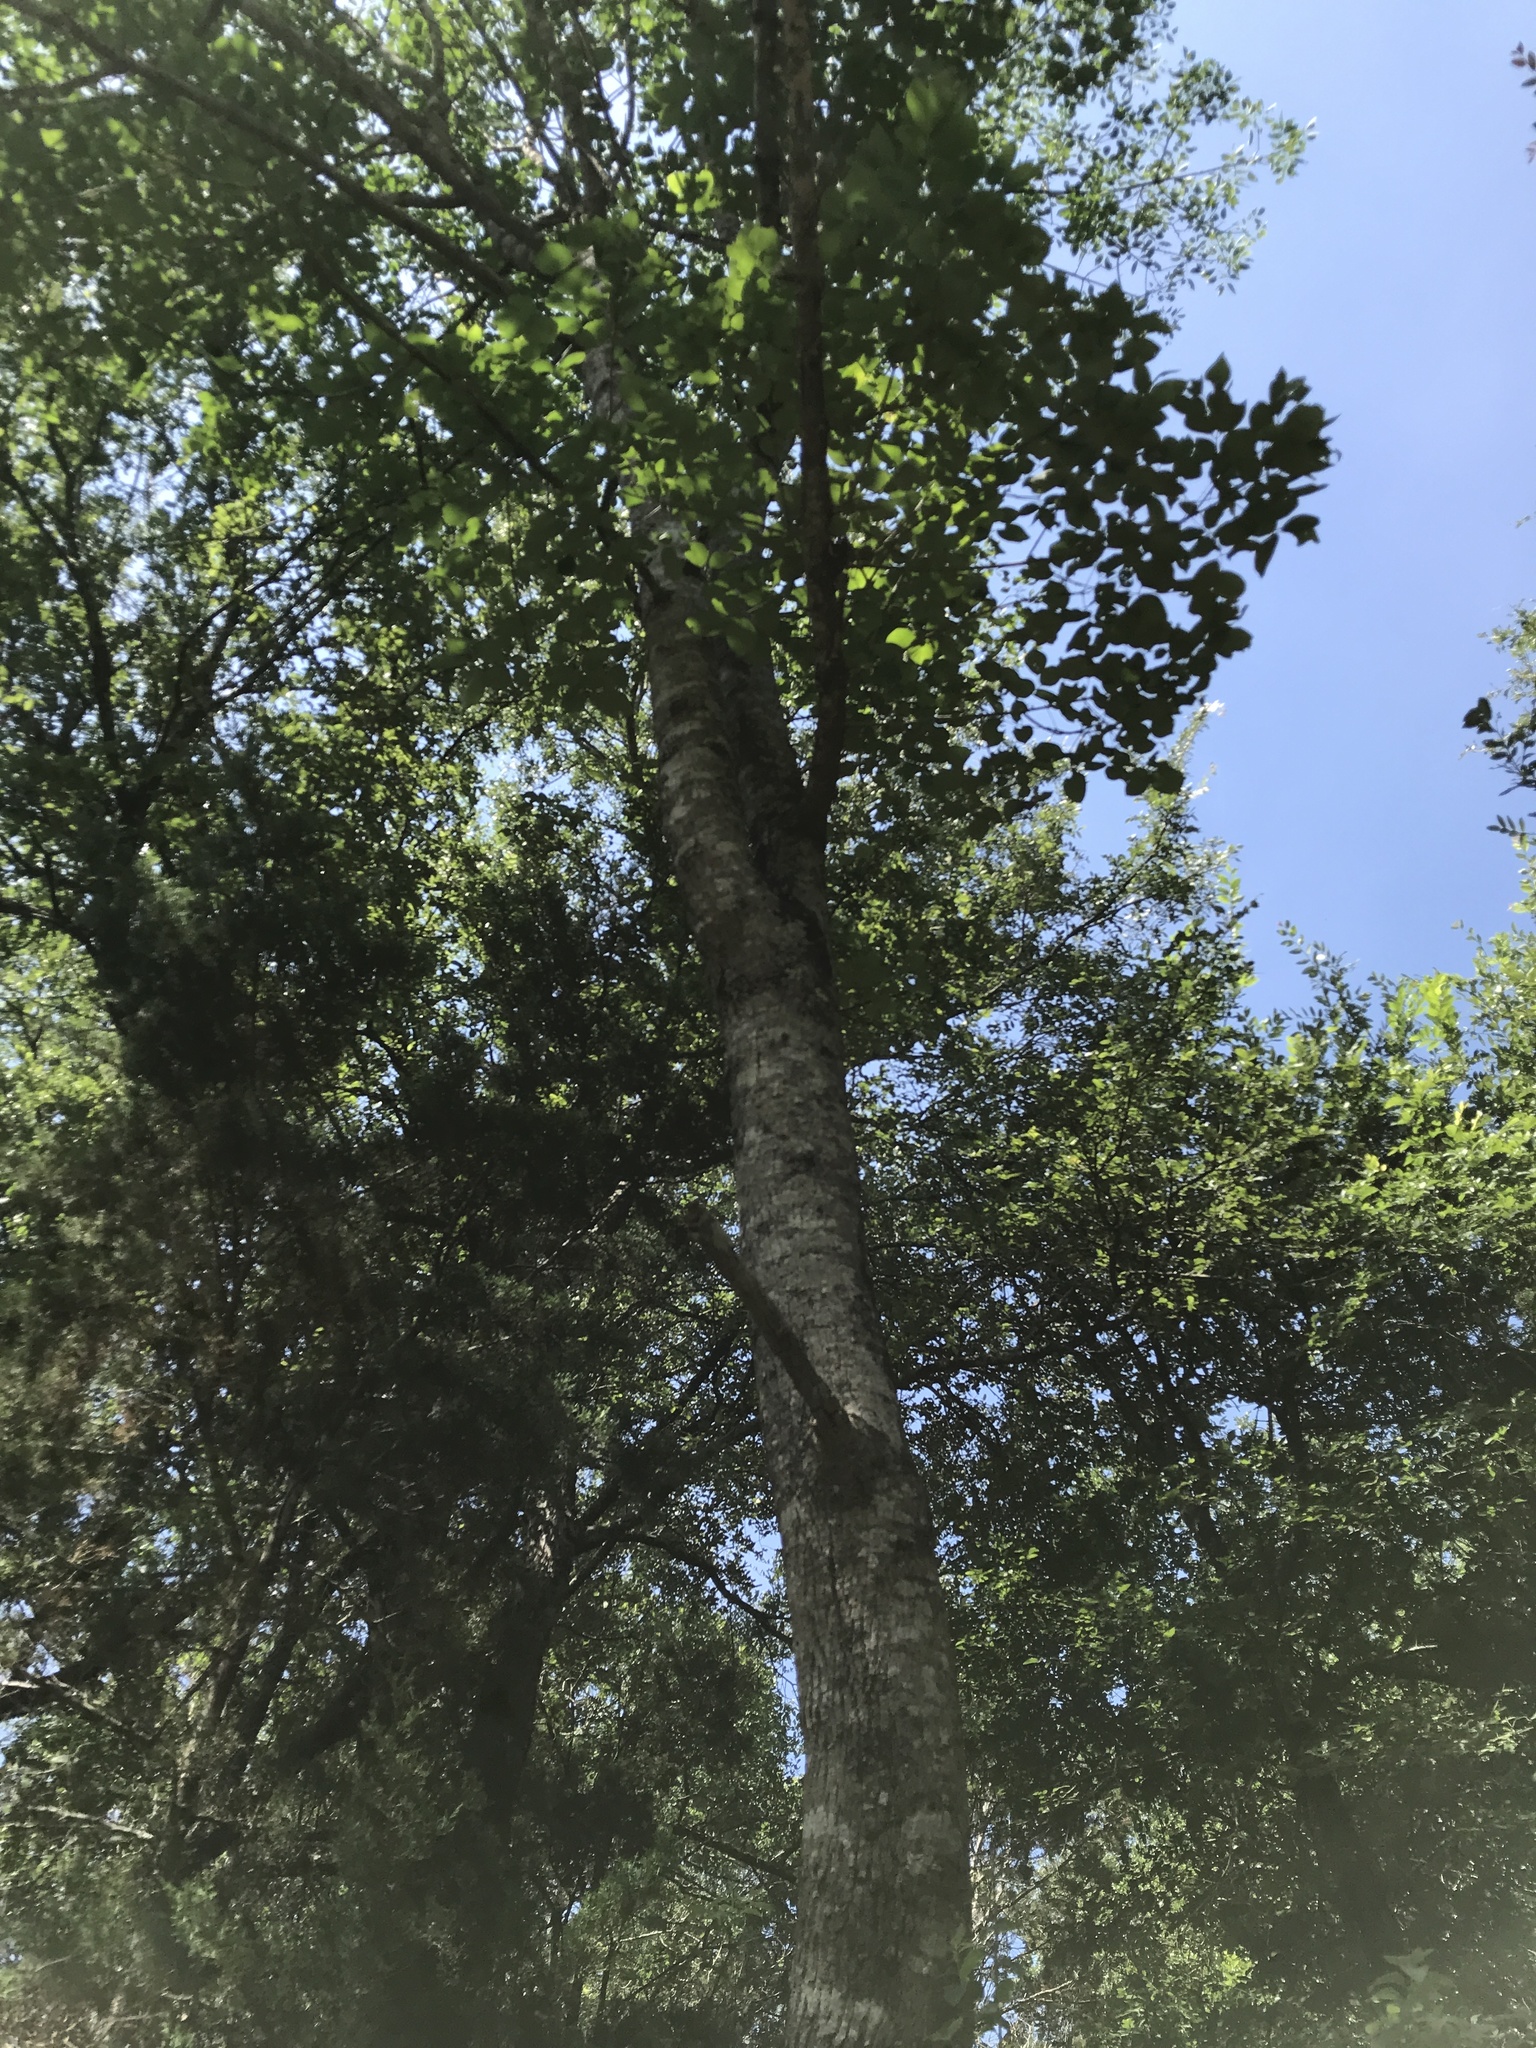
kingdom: Plantae
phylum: Tracheophyta
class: Magnoliopsida
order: Lamiales
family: Oleaceae
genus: Fraxinus
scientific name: Fraxinus albicans
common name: Texas ash
